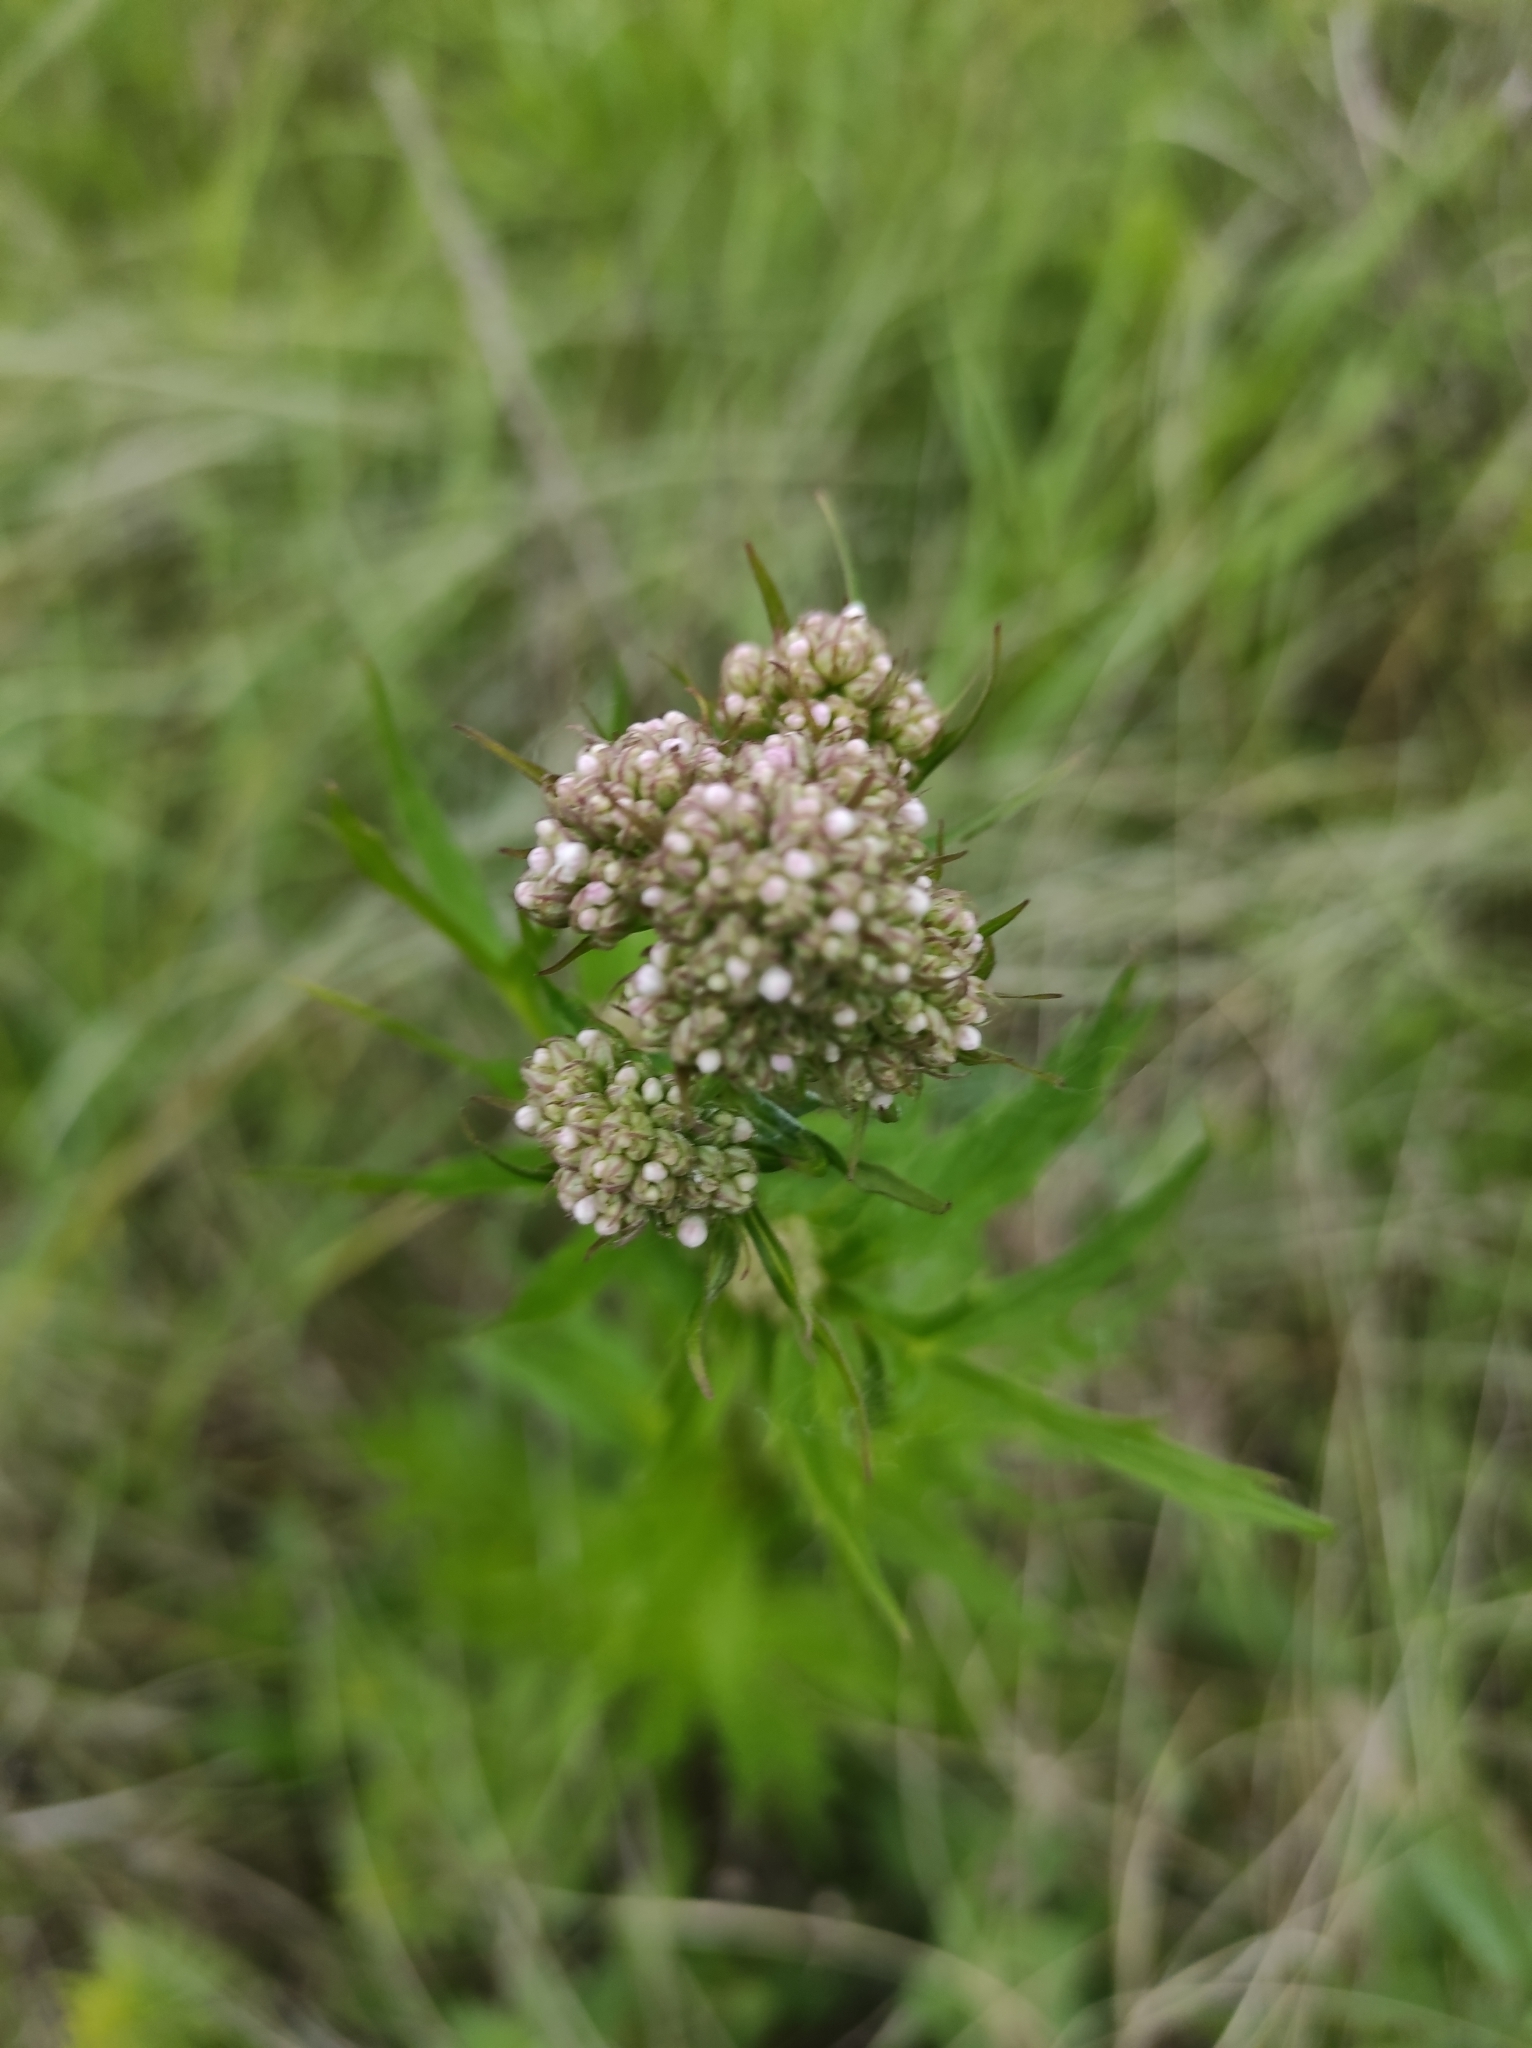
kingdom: Plantae
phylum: Tracheophyta
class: Magnoliopsida
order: Dipsacales
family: Caprifoliaceae
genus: Valeriana
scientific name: Valeriana officinalis
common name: Common valerian
